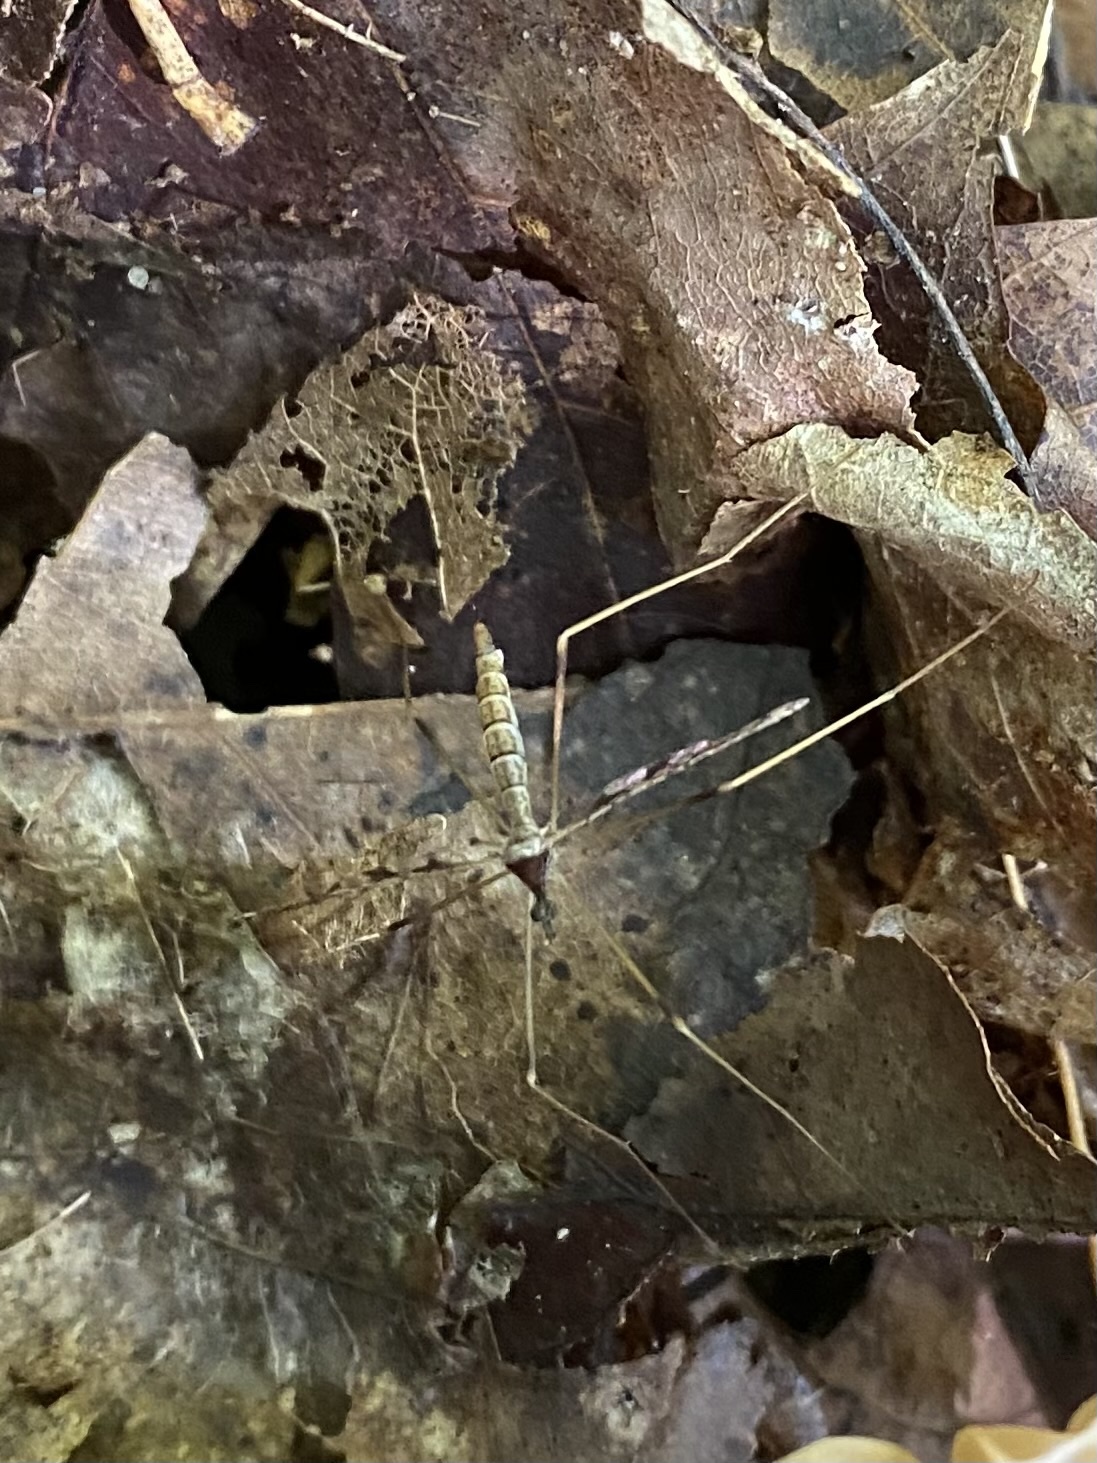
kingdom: Animalia
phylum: Arthropoda
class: Insecta
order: Diptera
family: Limoniidae
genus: Epiphragma
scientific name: Epiphragma solatrix
